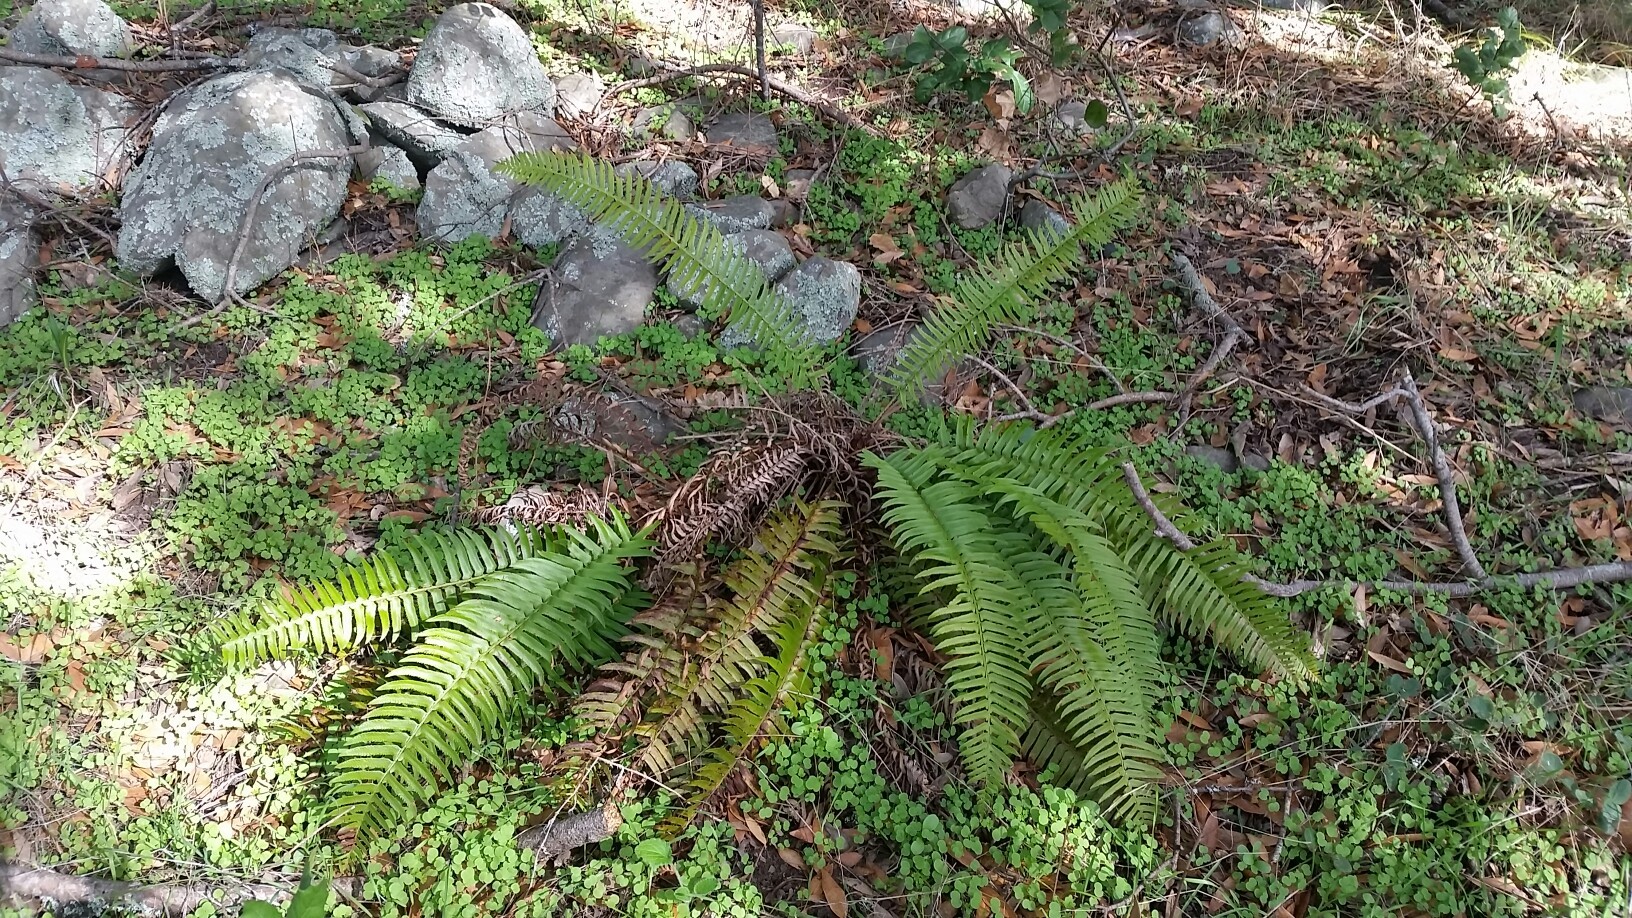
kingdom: Plantae
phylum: Tracheophyta
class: Polypodiopsida
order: Polypodiales
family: Dryopteridaceae
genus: Polystichum
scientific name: Polystichum munitum
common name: Western sword-fern
